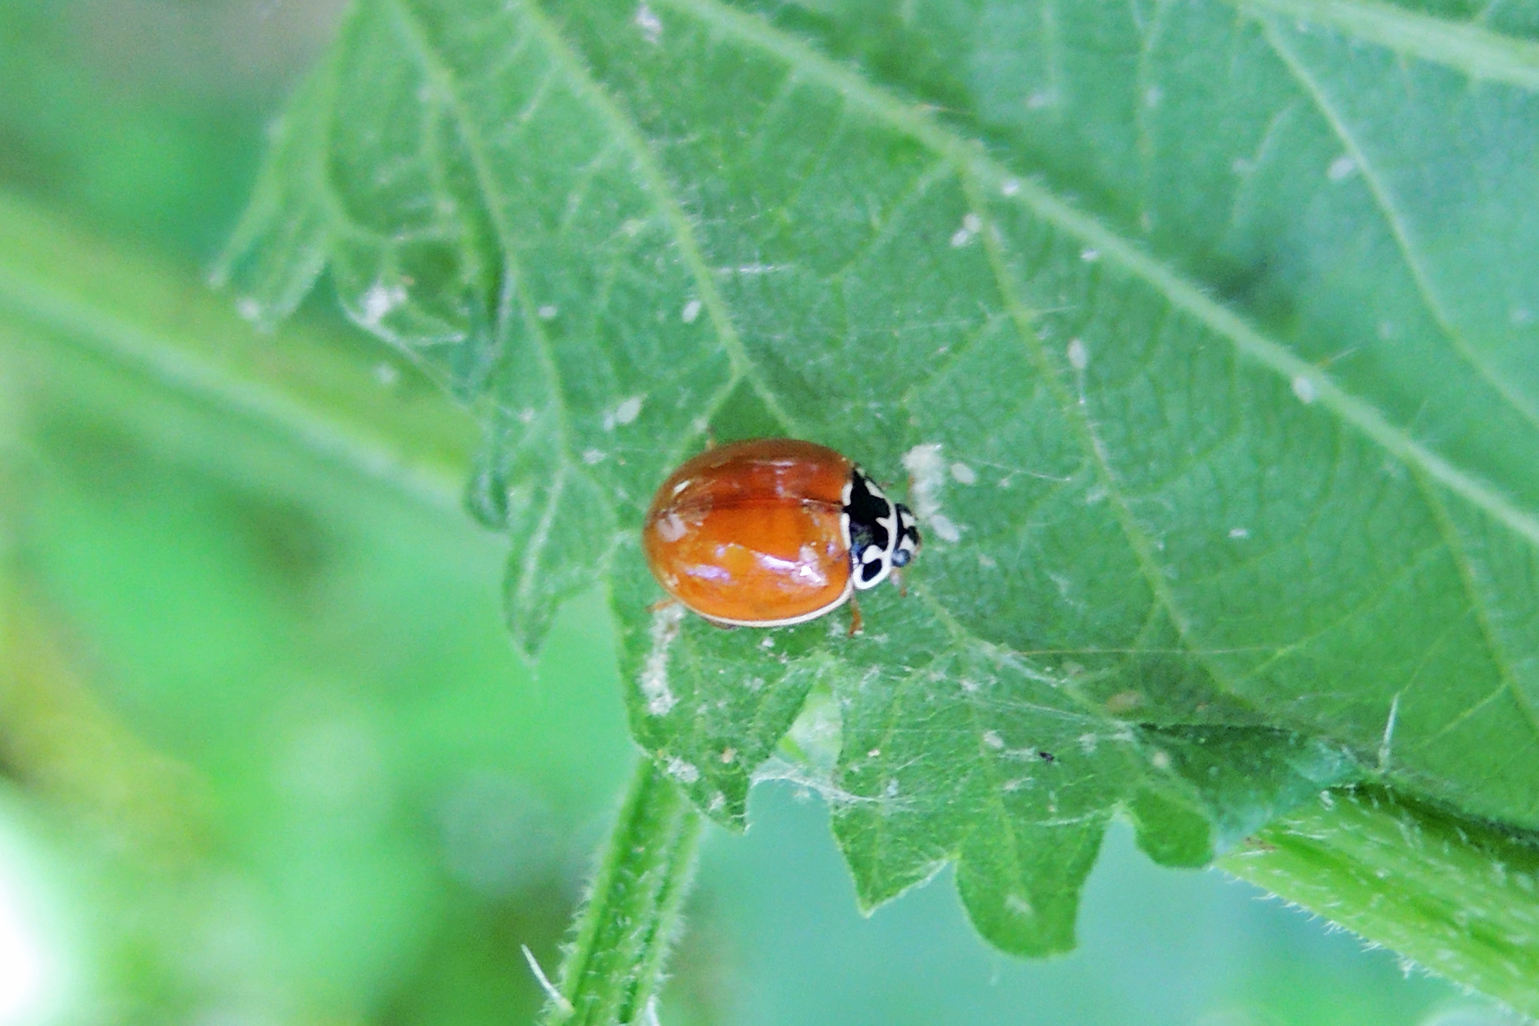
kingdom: Animalia
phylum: Arthropoda
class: Insecta
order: Coleoptera
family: Coccinellidae
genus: Cycloneda
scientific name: Cycloneda munda
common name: Polished lady beetle
